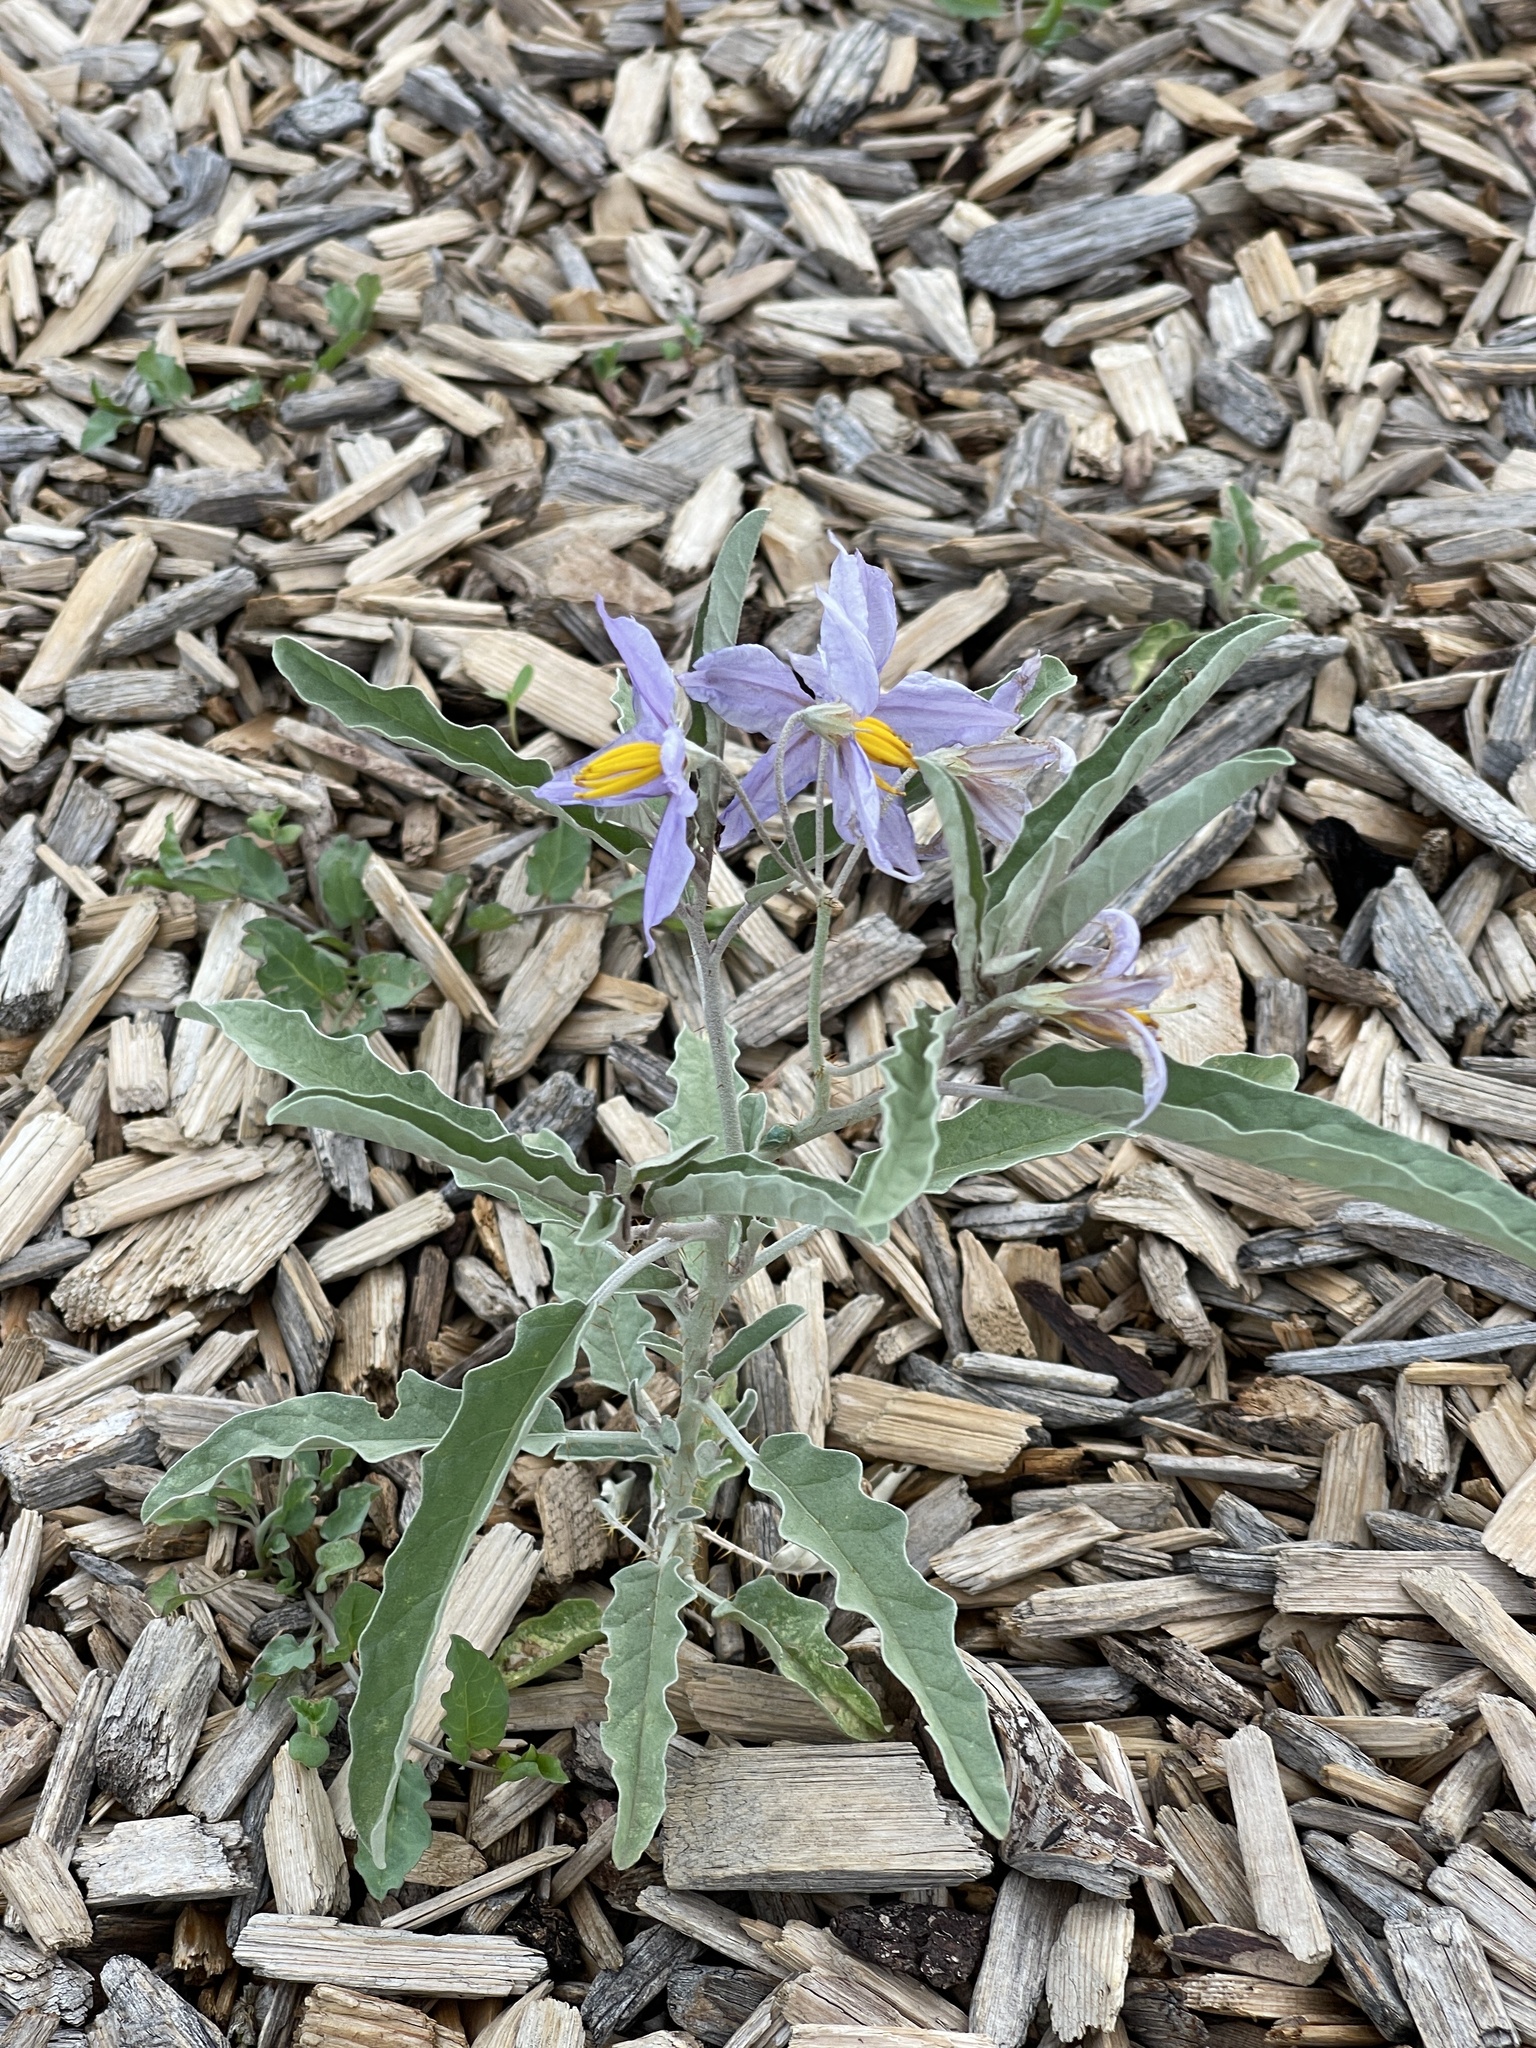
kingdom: Plantae
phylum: Tracheophyta
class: Magnoliopsida
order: Solanales
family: Solanaceae
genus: Solanum
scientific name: Solanum elaeagnifolium
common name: Silverleaf nightshade
